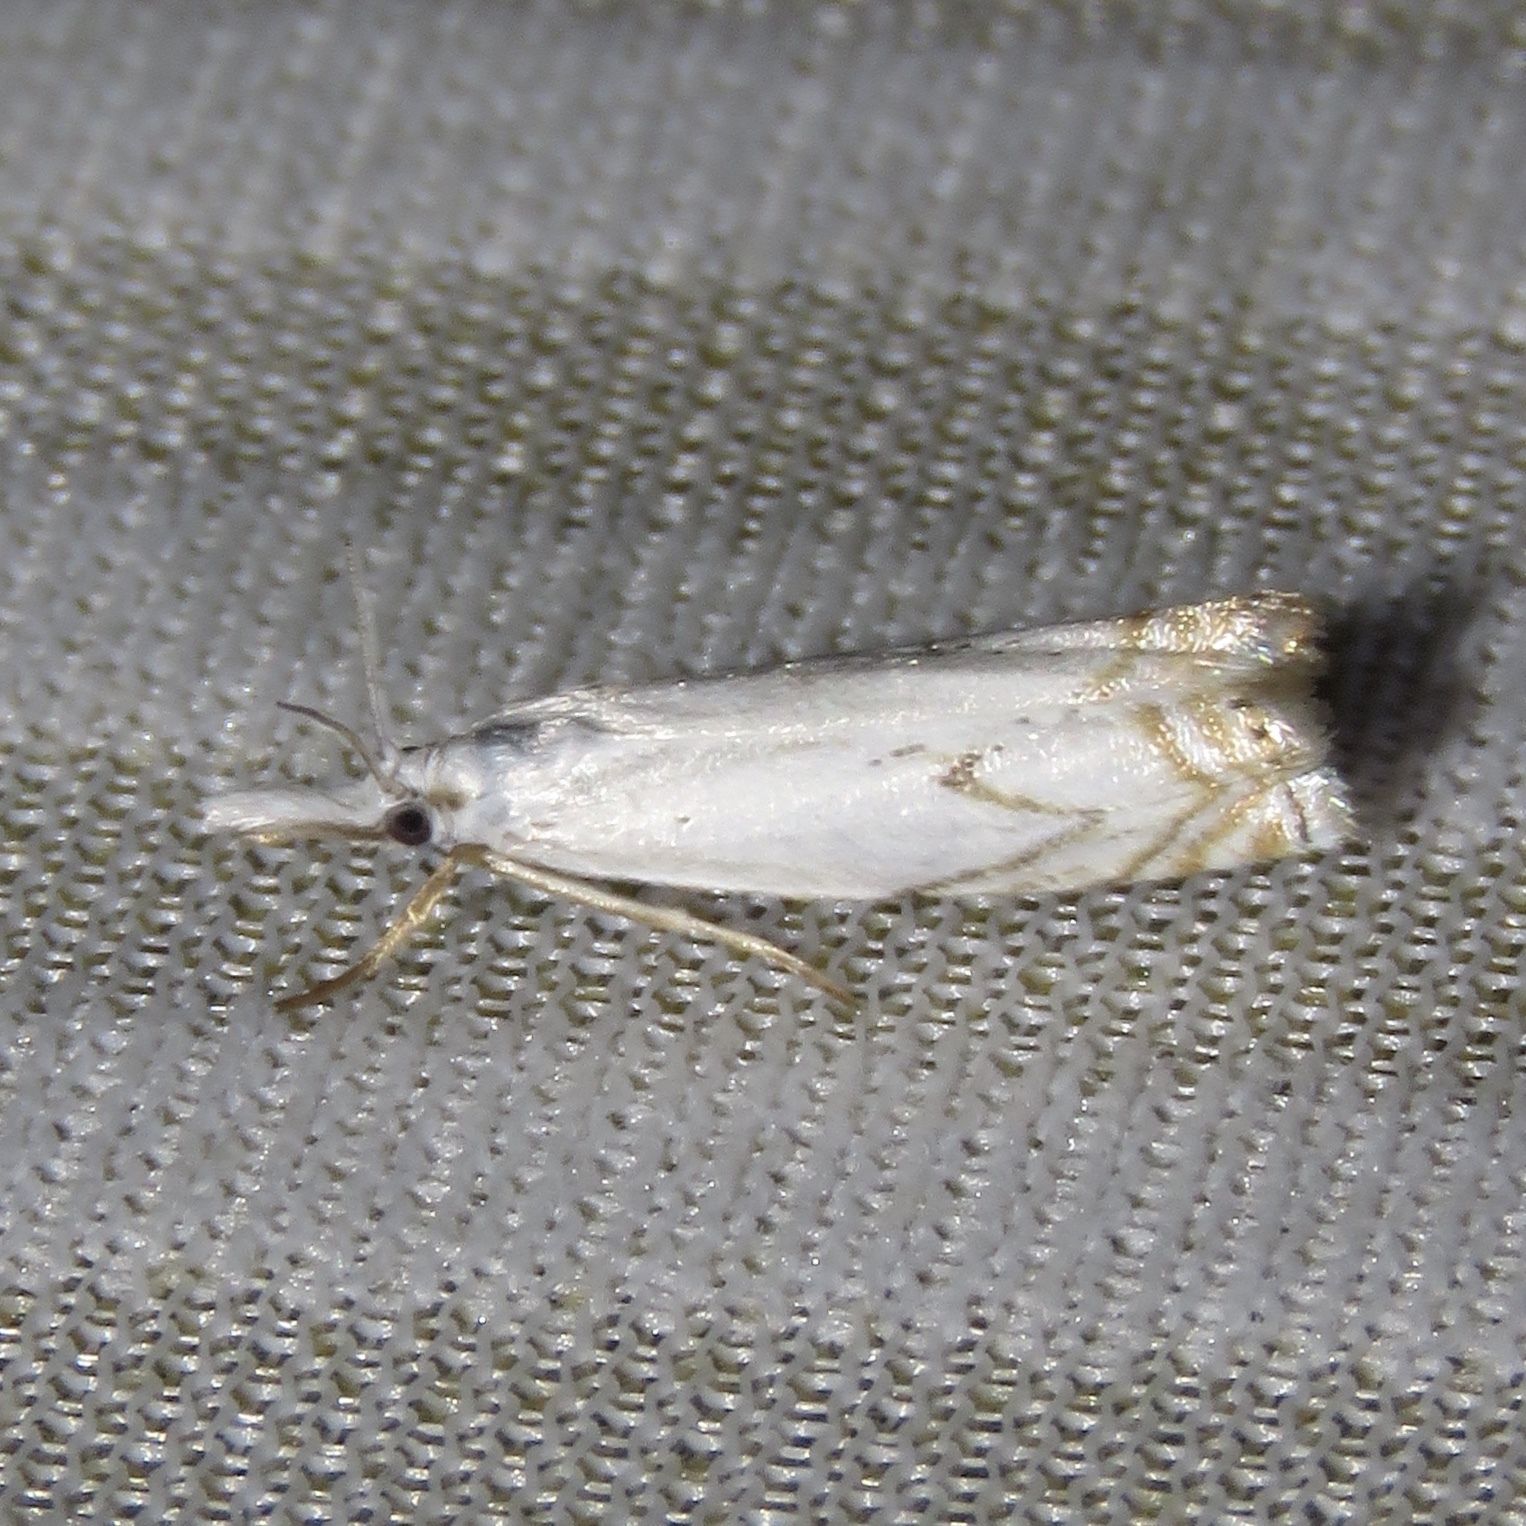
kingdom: Animalia
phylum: Arthropoda
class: Insecta
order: Lepidoptera
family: Crambidae
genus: Crambus
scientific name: Crambus albellus
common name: Small white grass-veneer
